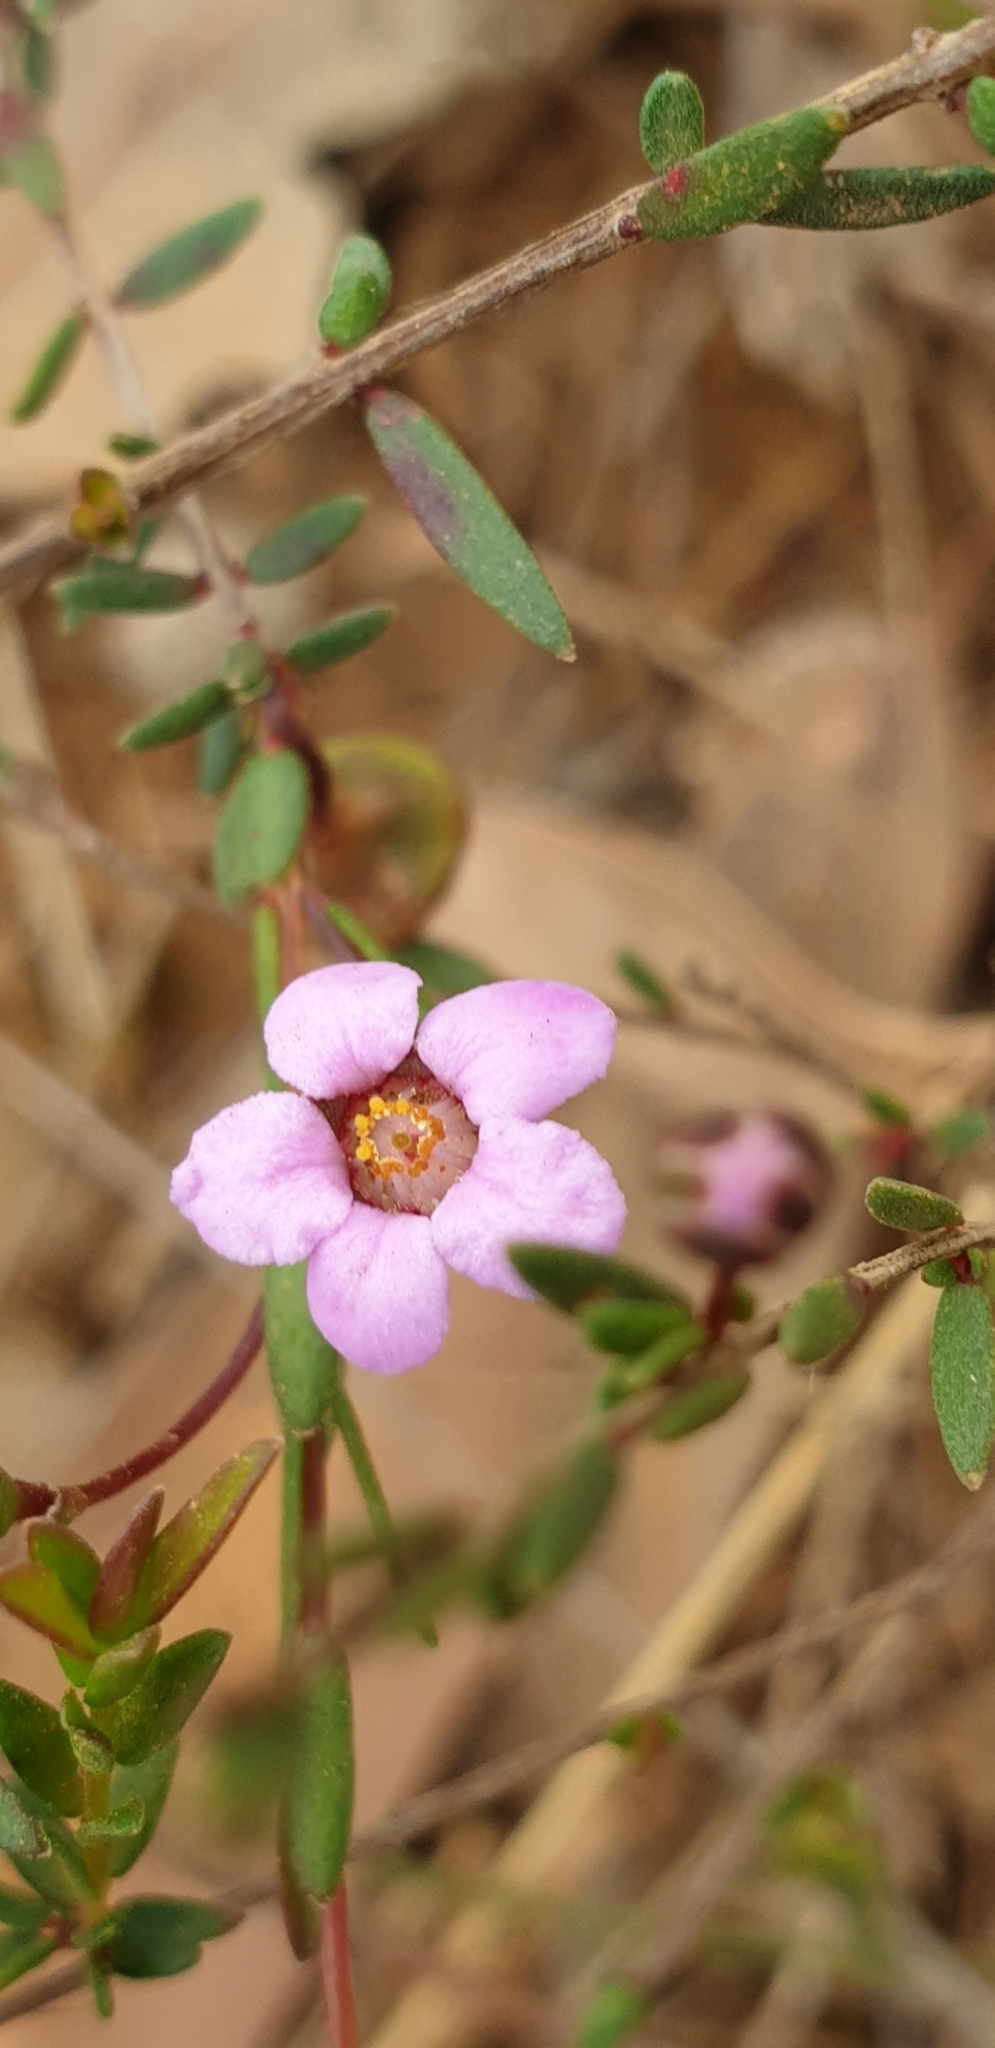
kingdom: Plantae
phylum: Tracheophyta
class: Magnoliopsida
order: Myrtales
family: Myrtaceae
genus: Euryomyrtus
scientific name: Euryomyrtus ramosissima
